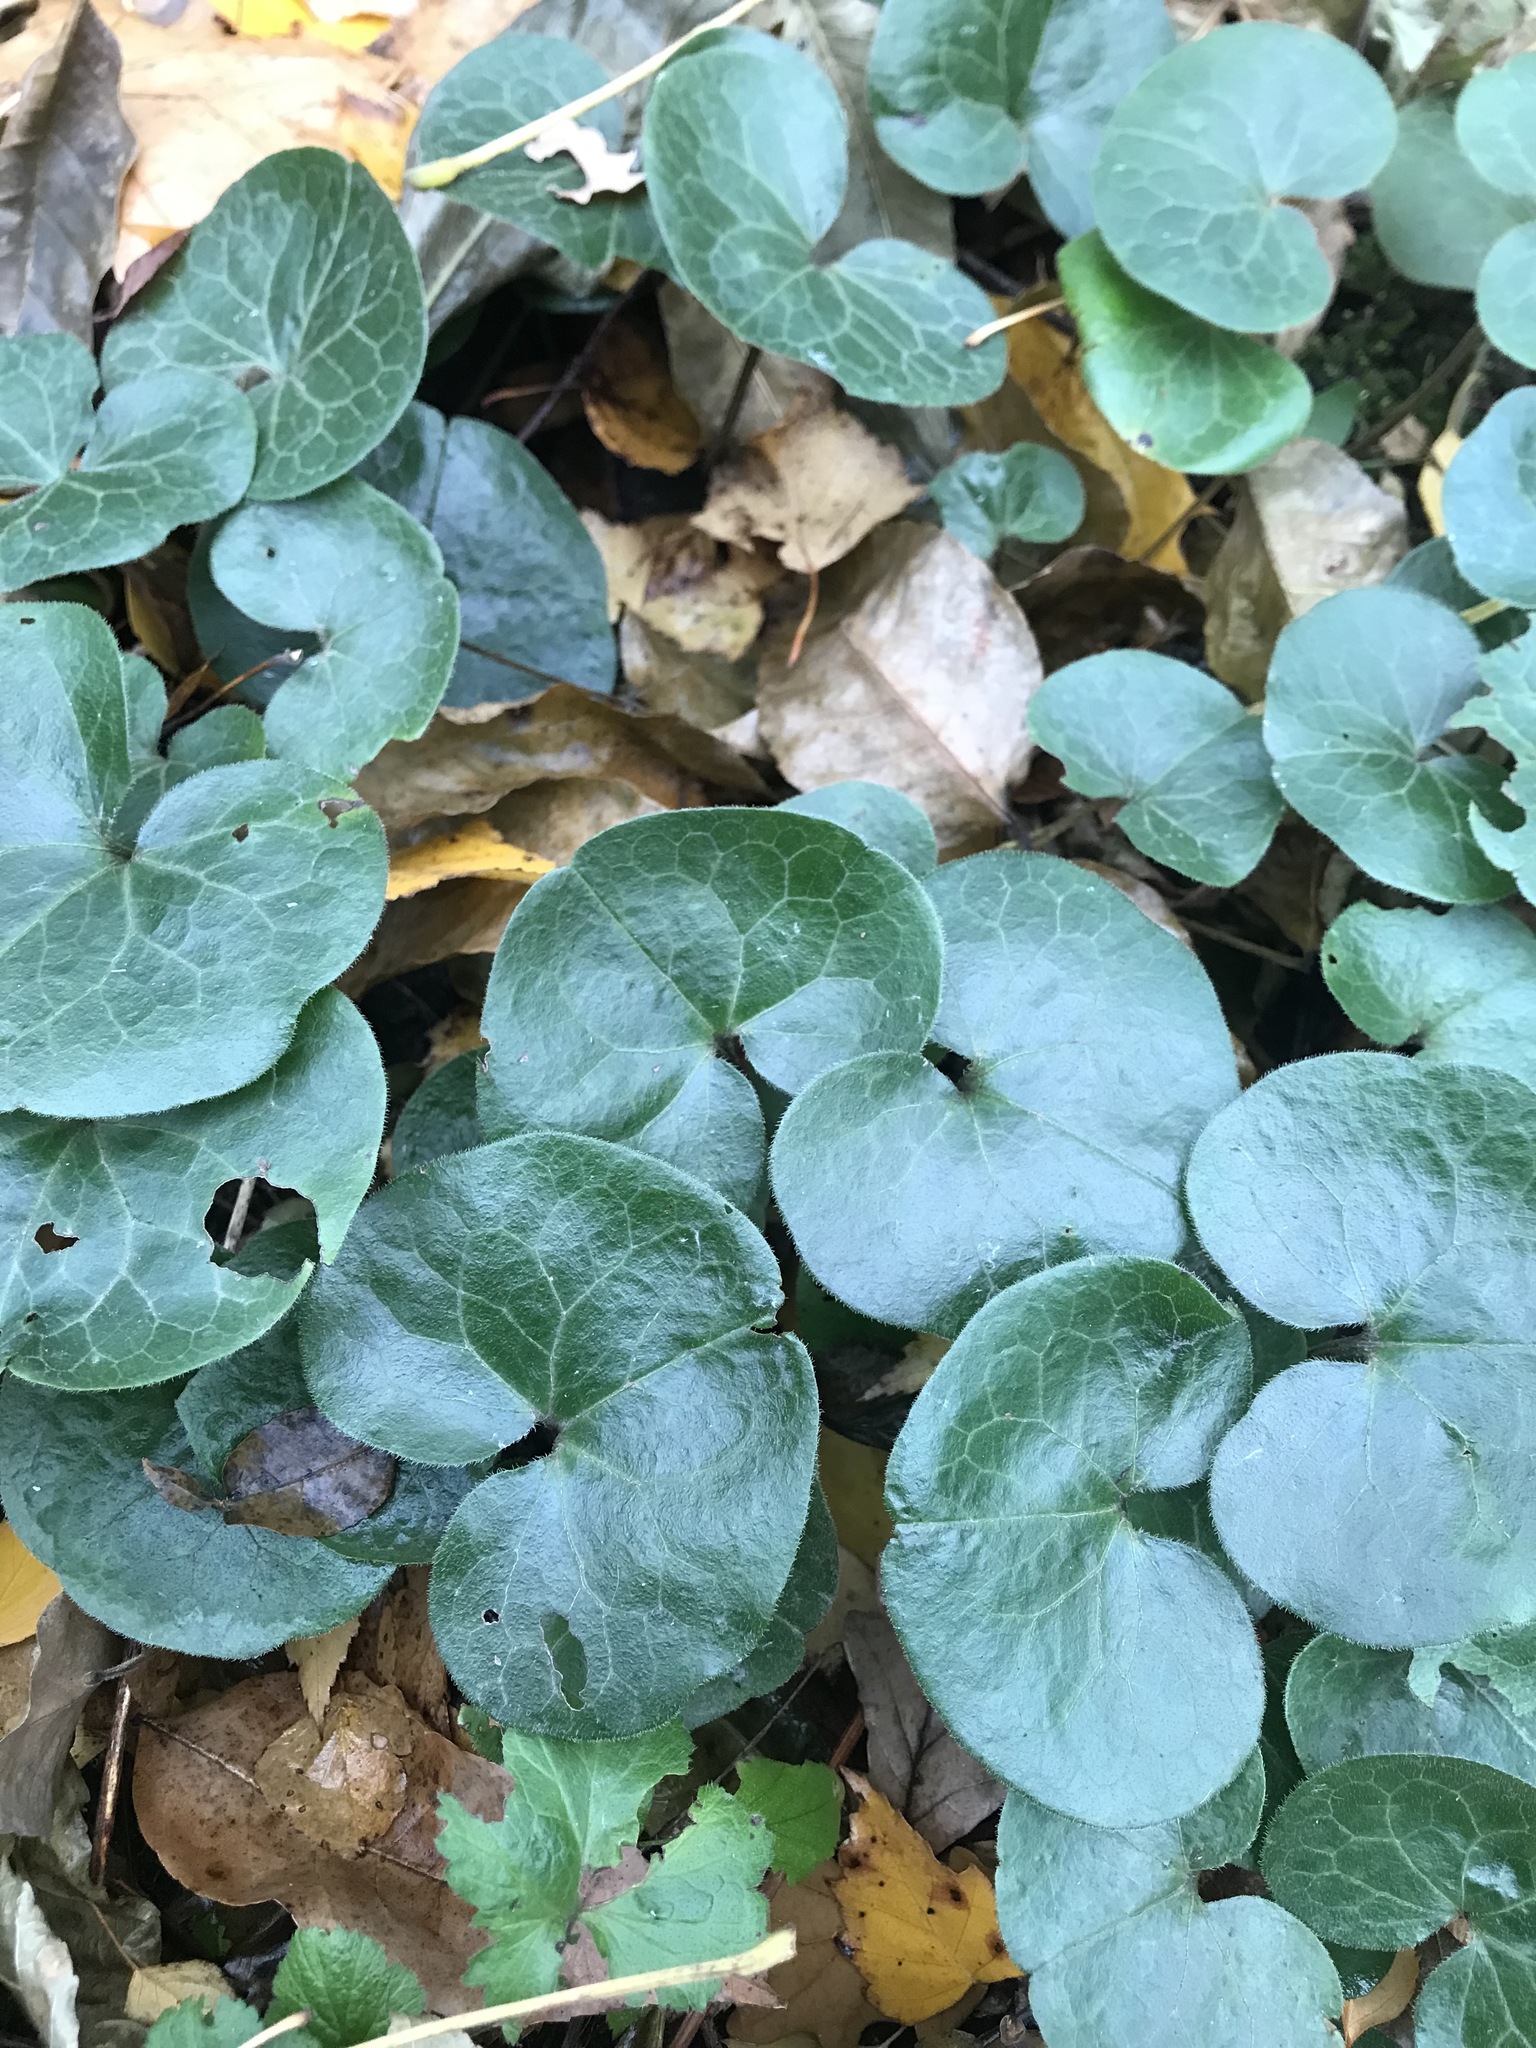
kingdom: Plantae
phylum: Tracheophyta
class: Magnoliopsida
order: Piperales
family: Aristolochiaceae
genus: Asarum
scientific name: Asarum europaeum
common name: Asarabacca
